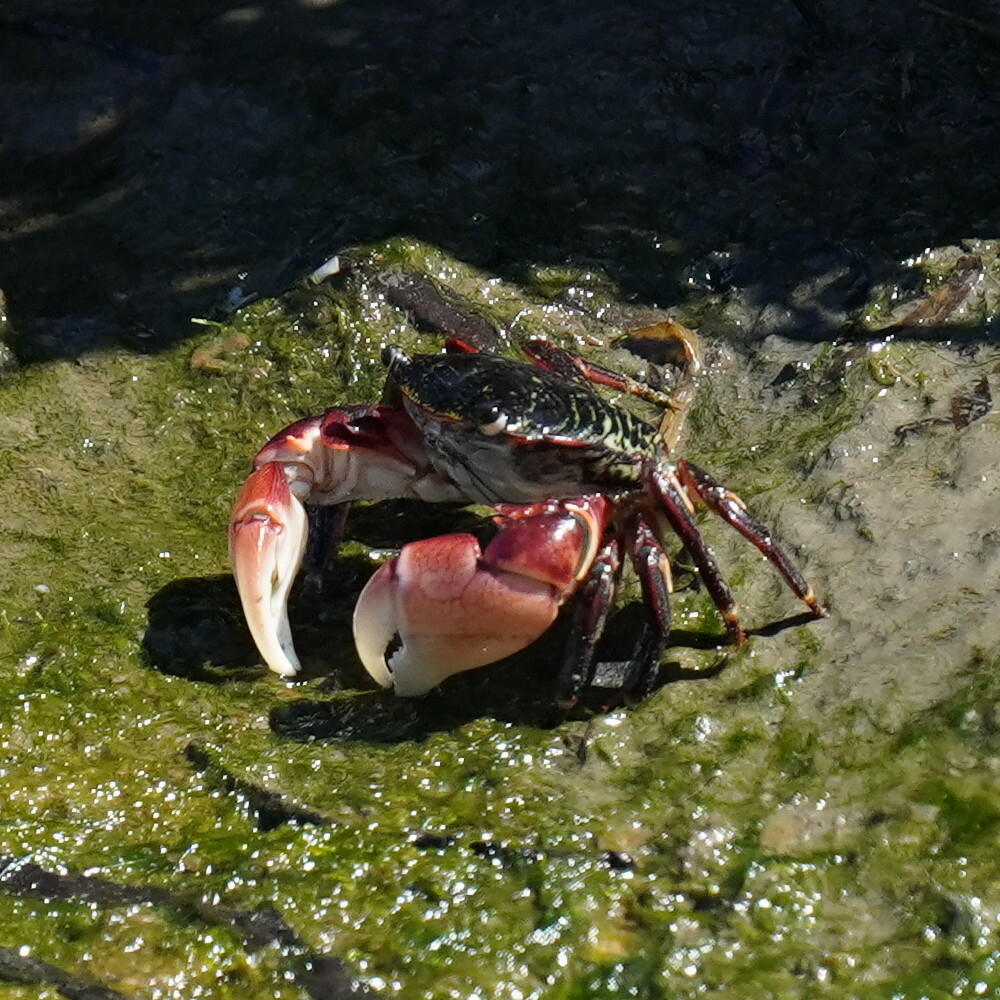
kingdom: Animalia
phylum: Arthropoda
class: Malacostraca
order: Decapoda
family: Grapsidae
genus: Pachygrapsus
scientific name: Pachygrapsus crassipes
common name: Striped shore crab
